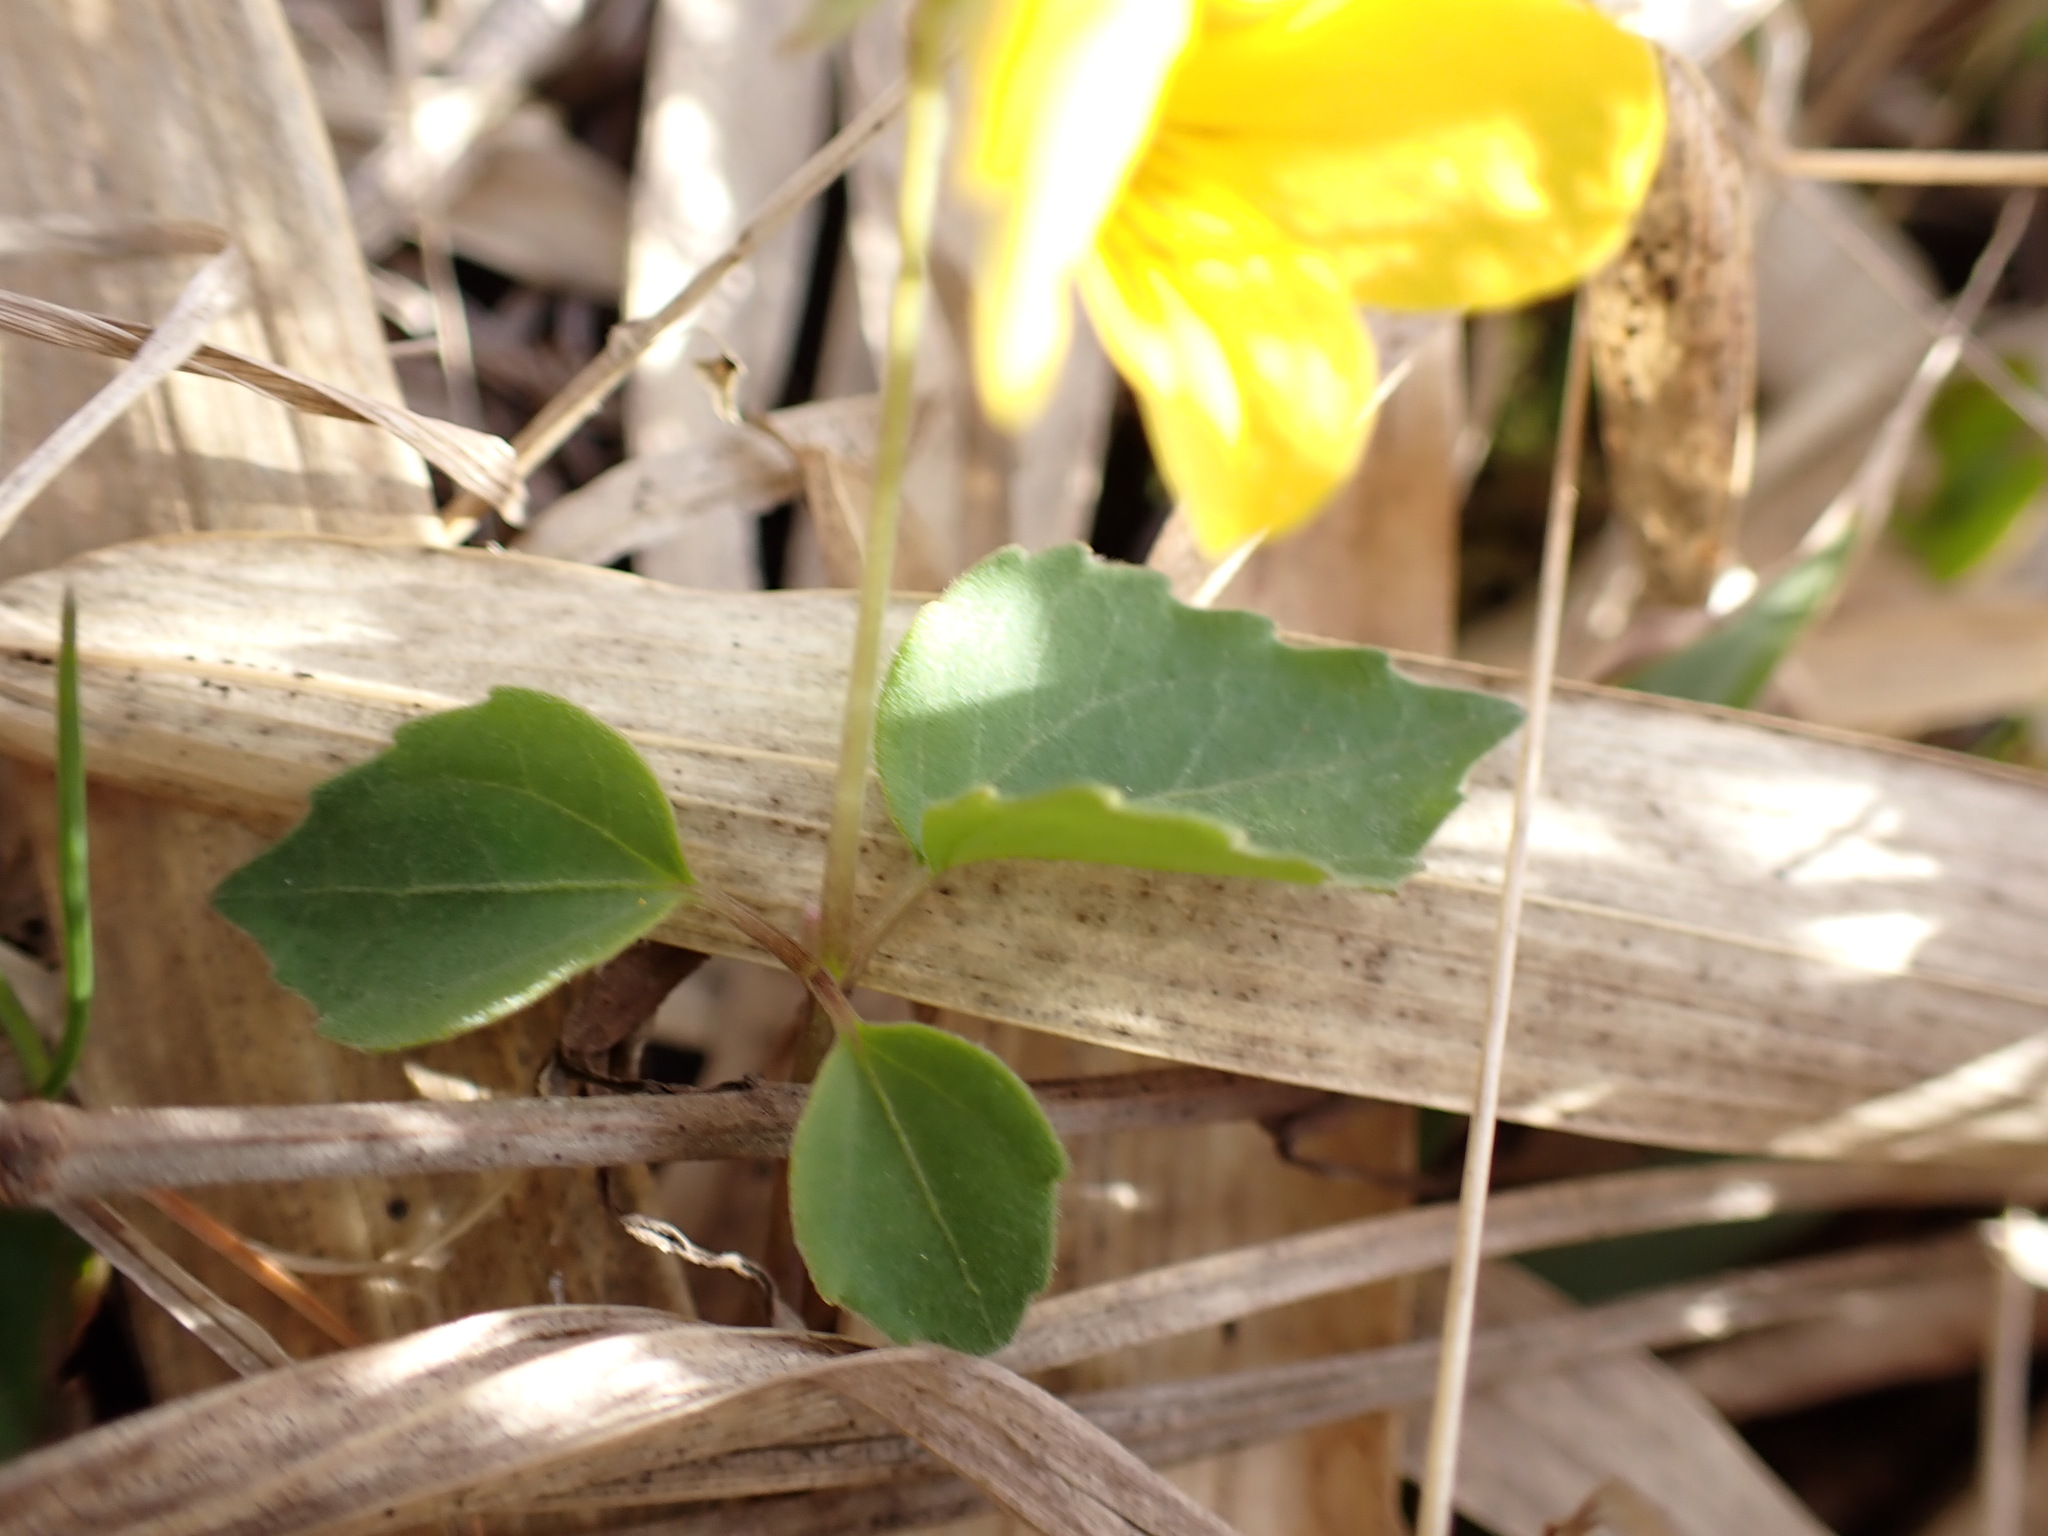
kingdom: Plantae
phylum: Tracheophyta
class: Magnoliopsida
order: Malpighiales
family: Violaceae
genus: Viola
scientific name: Viola orientalis
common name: Golden violet
